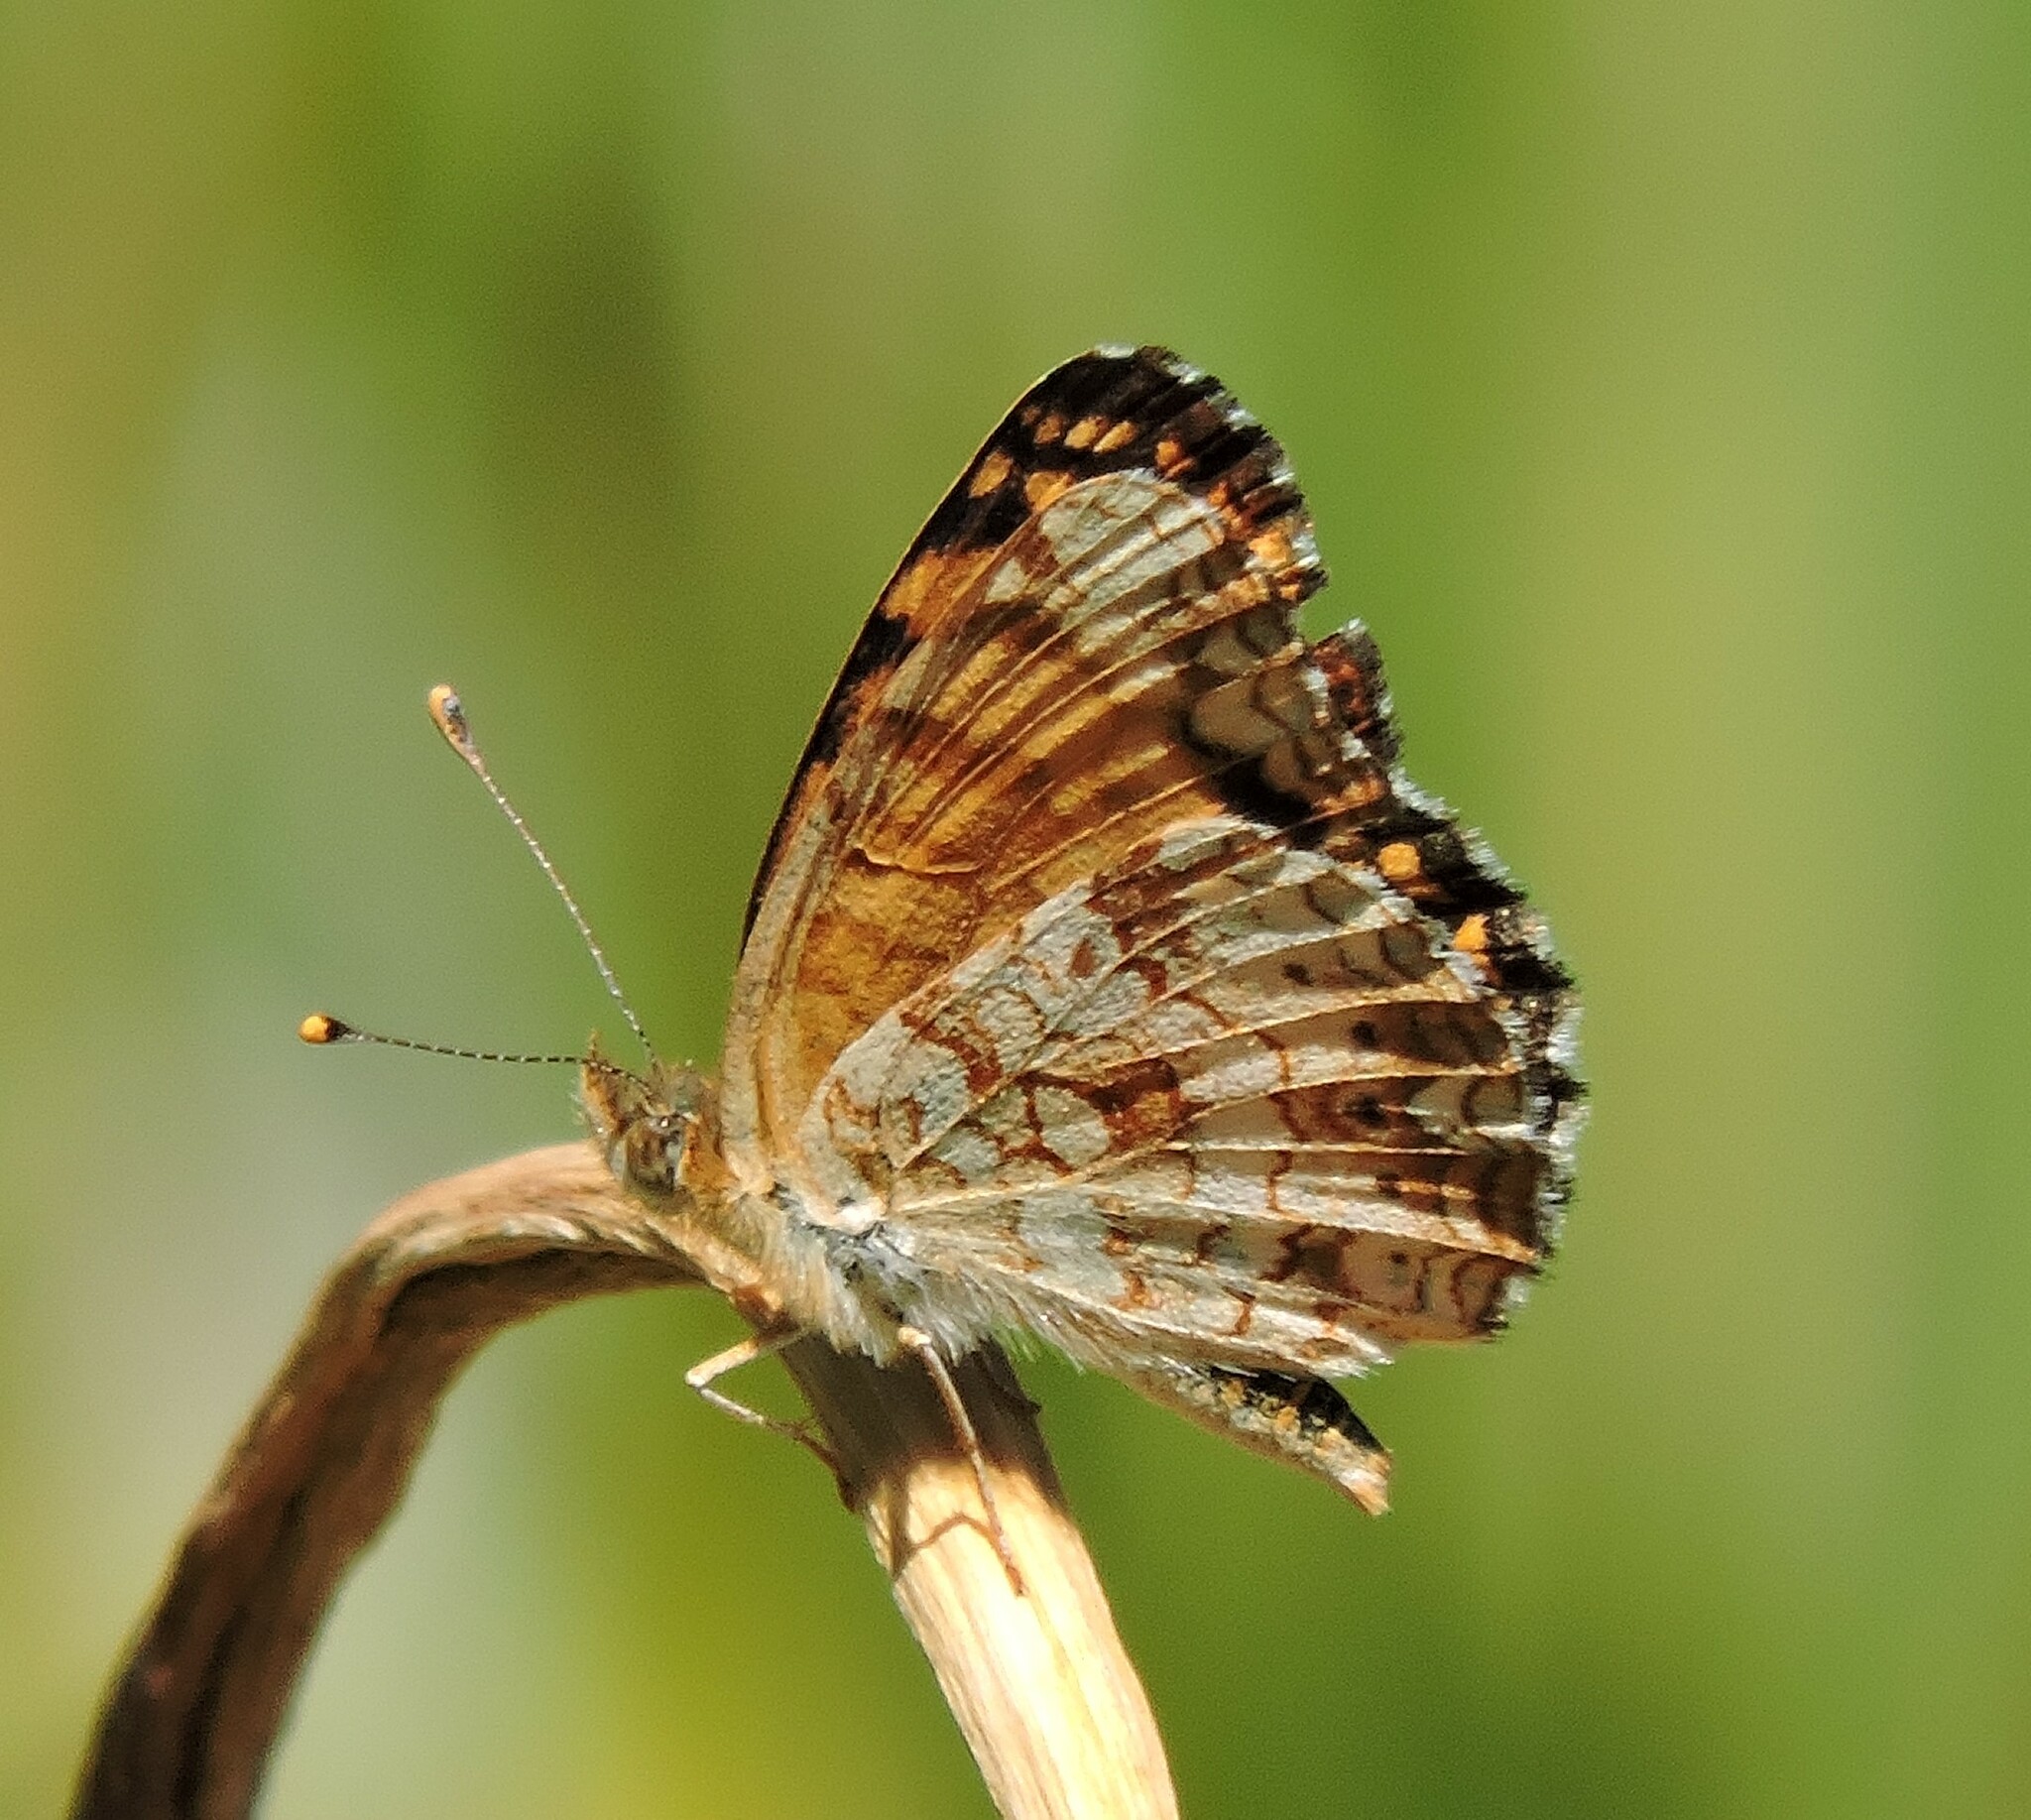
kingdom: Animalia
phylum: Arthropoda
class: Insecta
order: Lepidoptera
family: Nymphalidae
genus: Eresia
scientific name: Eresia aveyrona
